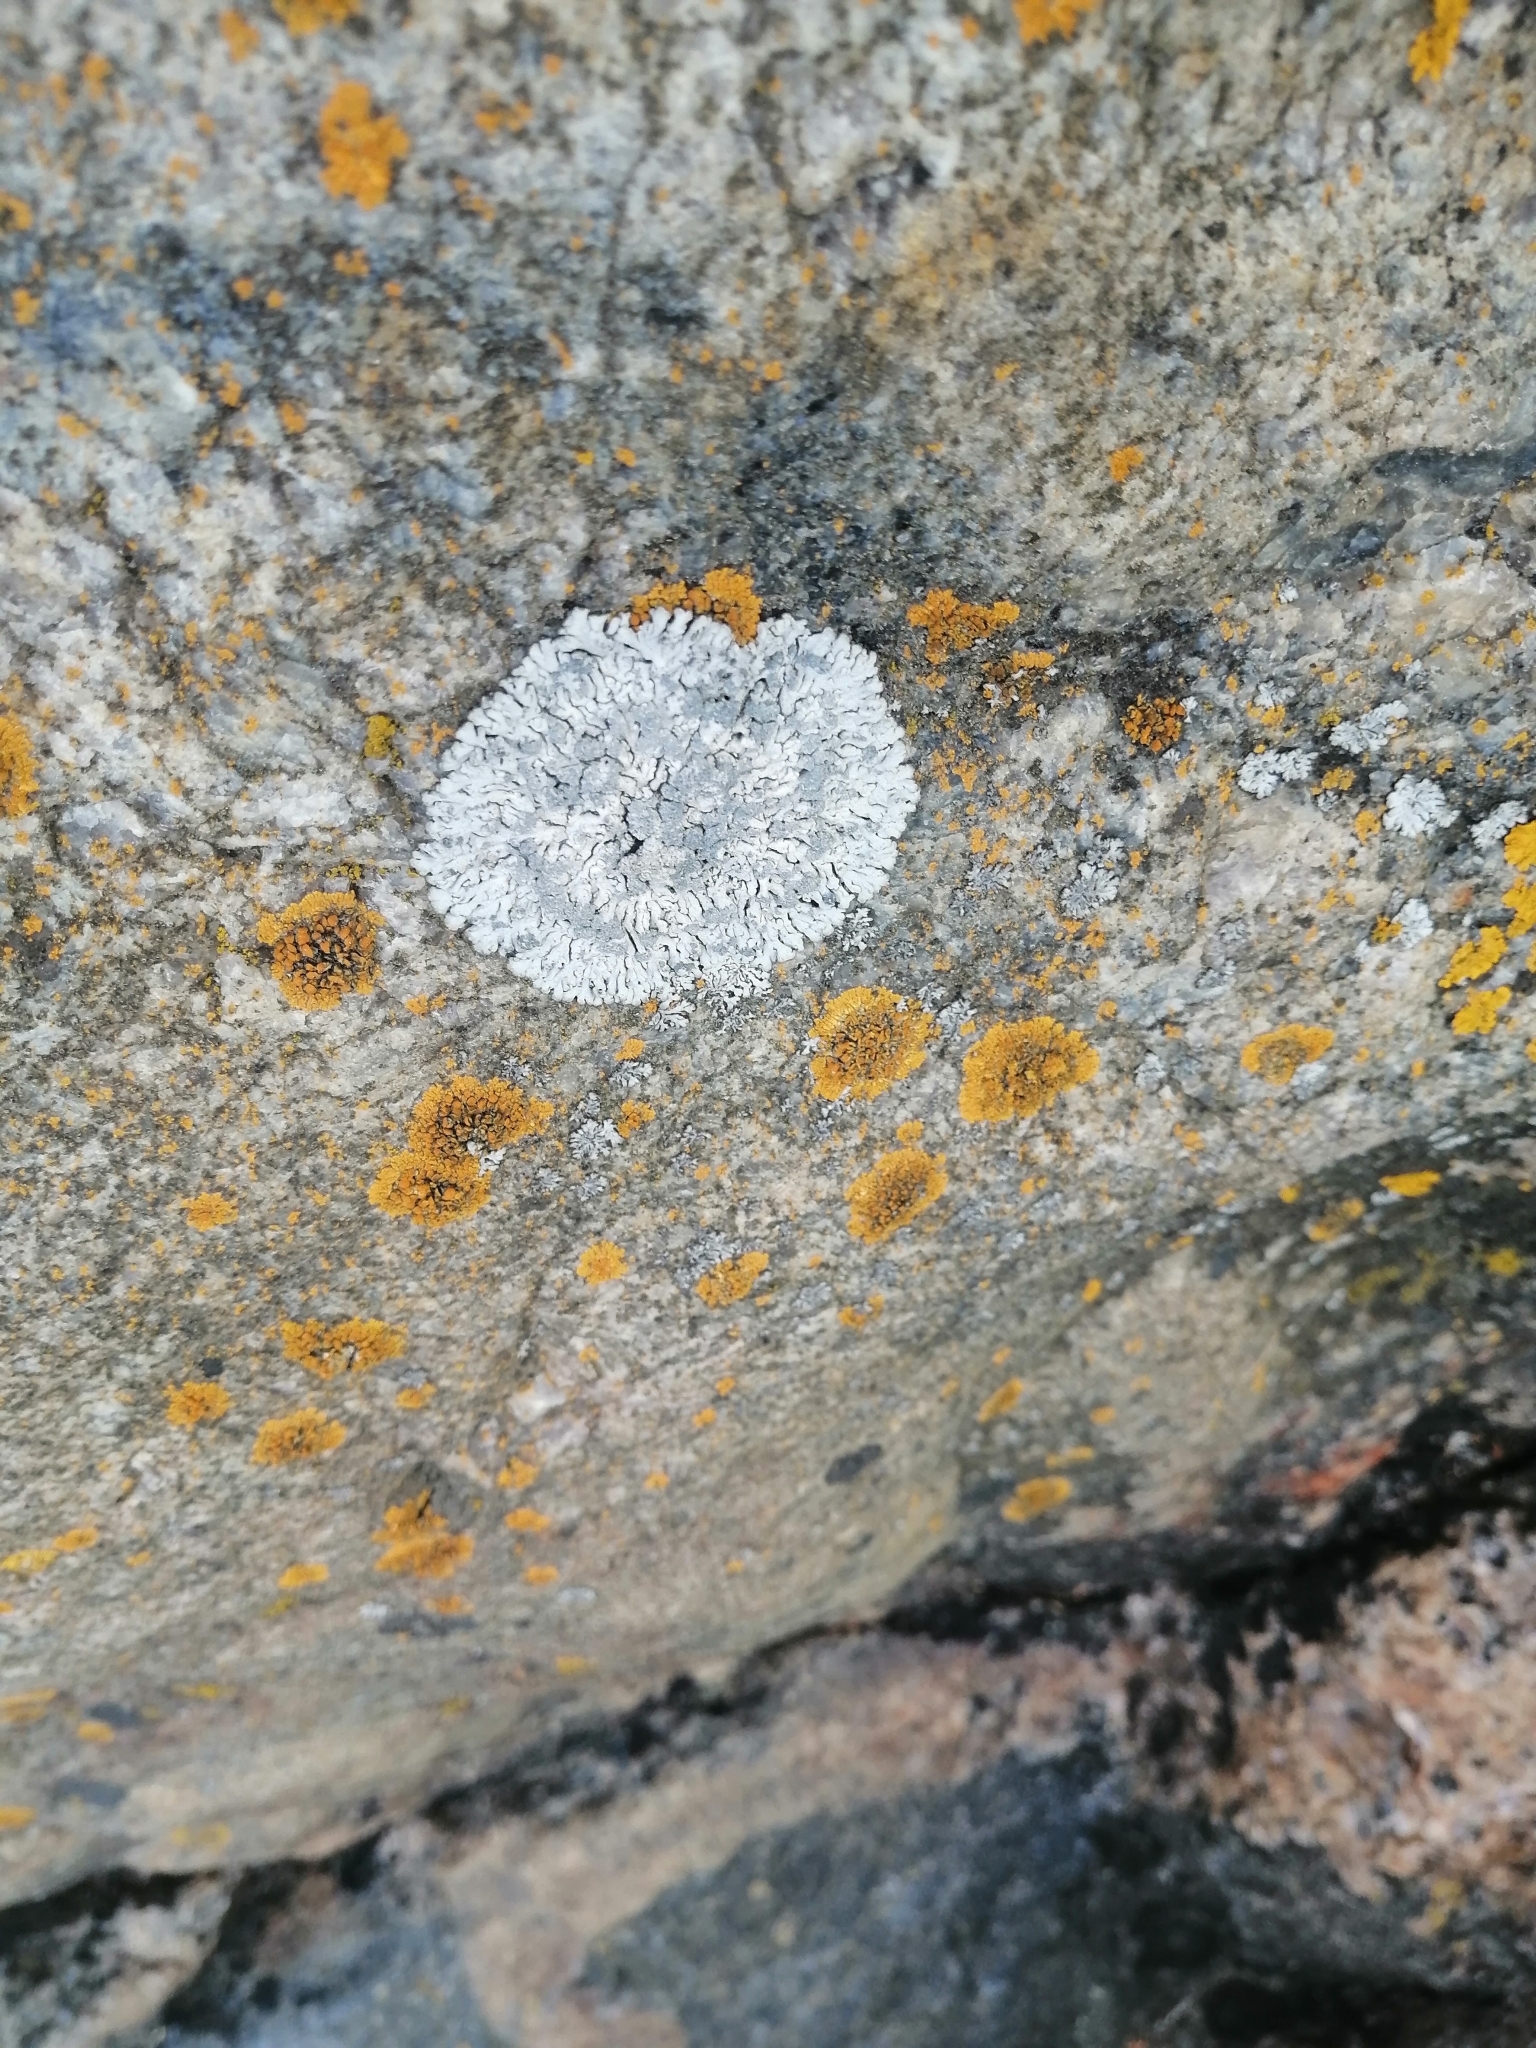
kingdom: Fungi
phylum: Ascomycota
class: Lecanoromycetes
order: Caliciales
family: Physciaceae
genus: Physcia
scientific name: Physcia caesia
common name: Blue-gray rosette lichen
